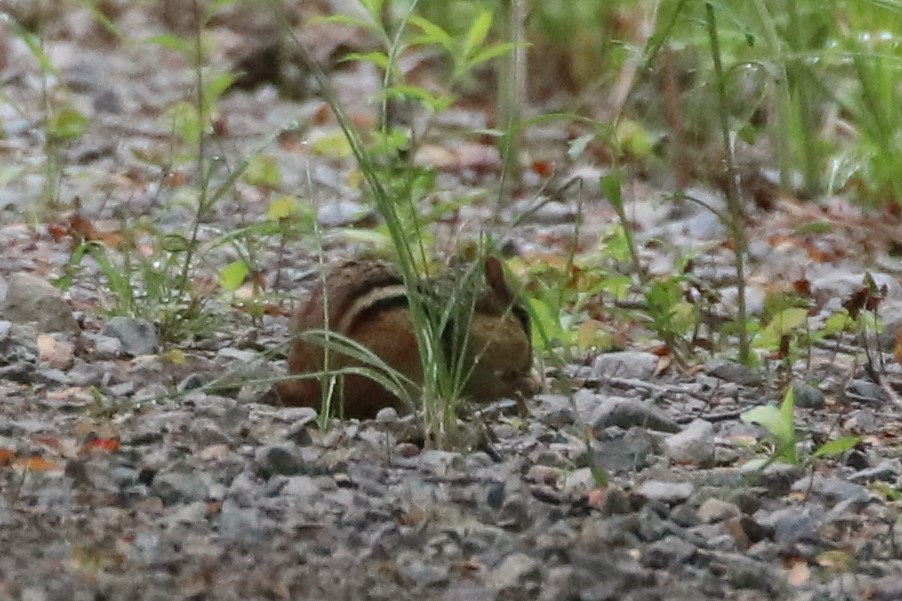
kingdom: Animalia
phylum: Chordata
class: Mammalia
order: Rodentia
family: Sciuridae
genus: Tamias
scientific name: Tamias striatus
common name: Eastern chipmunk
